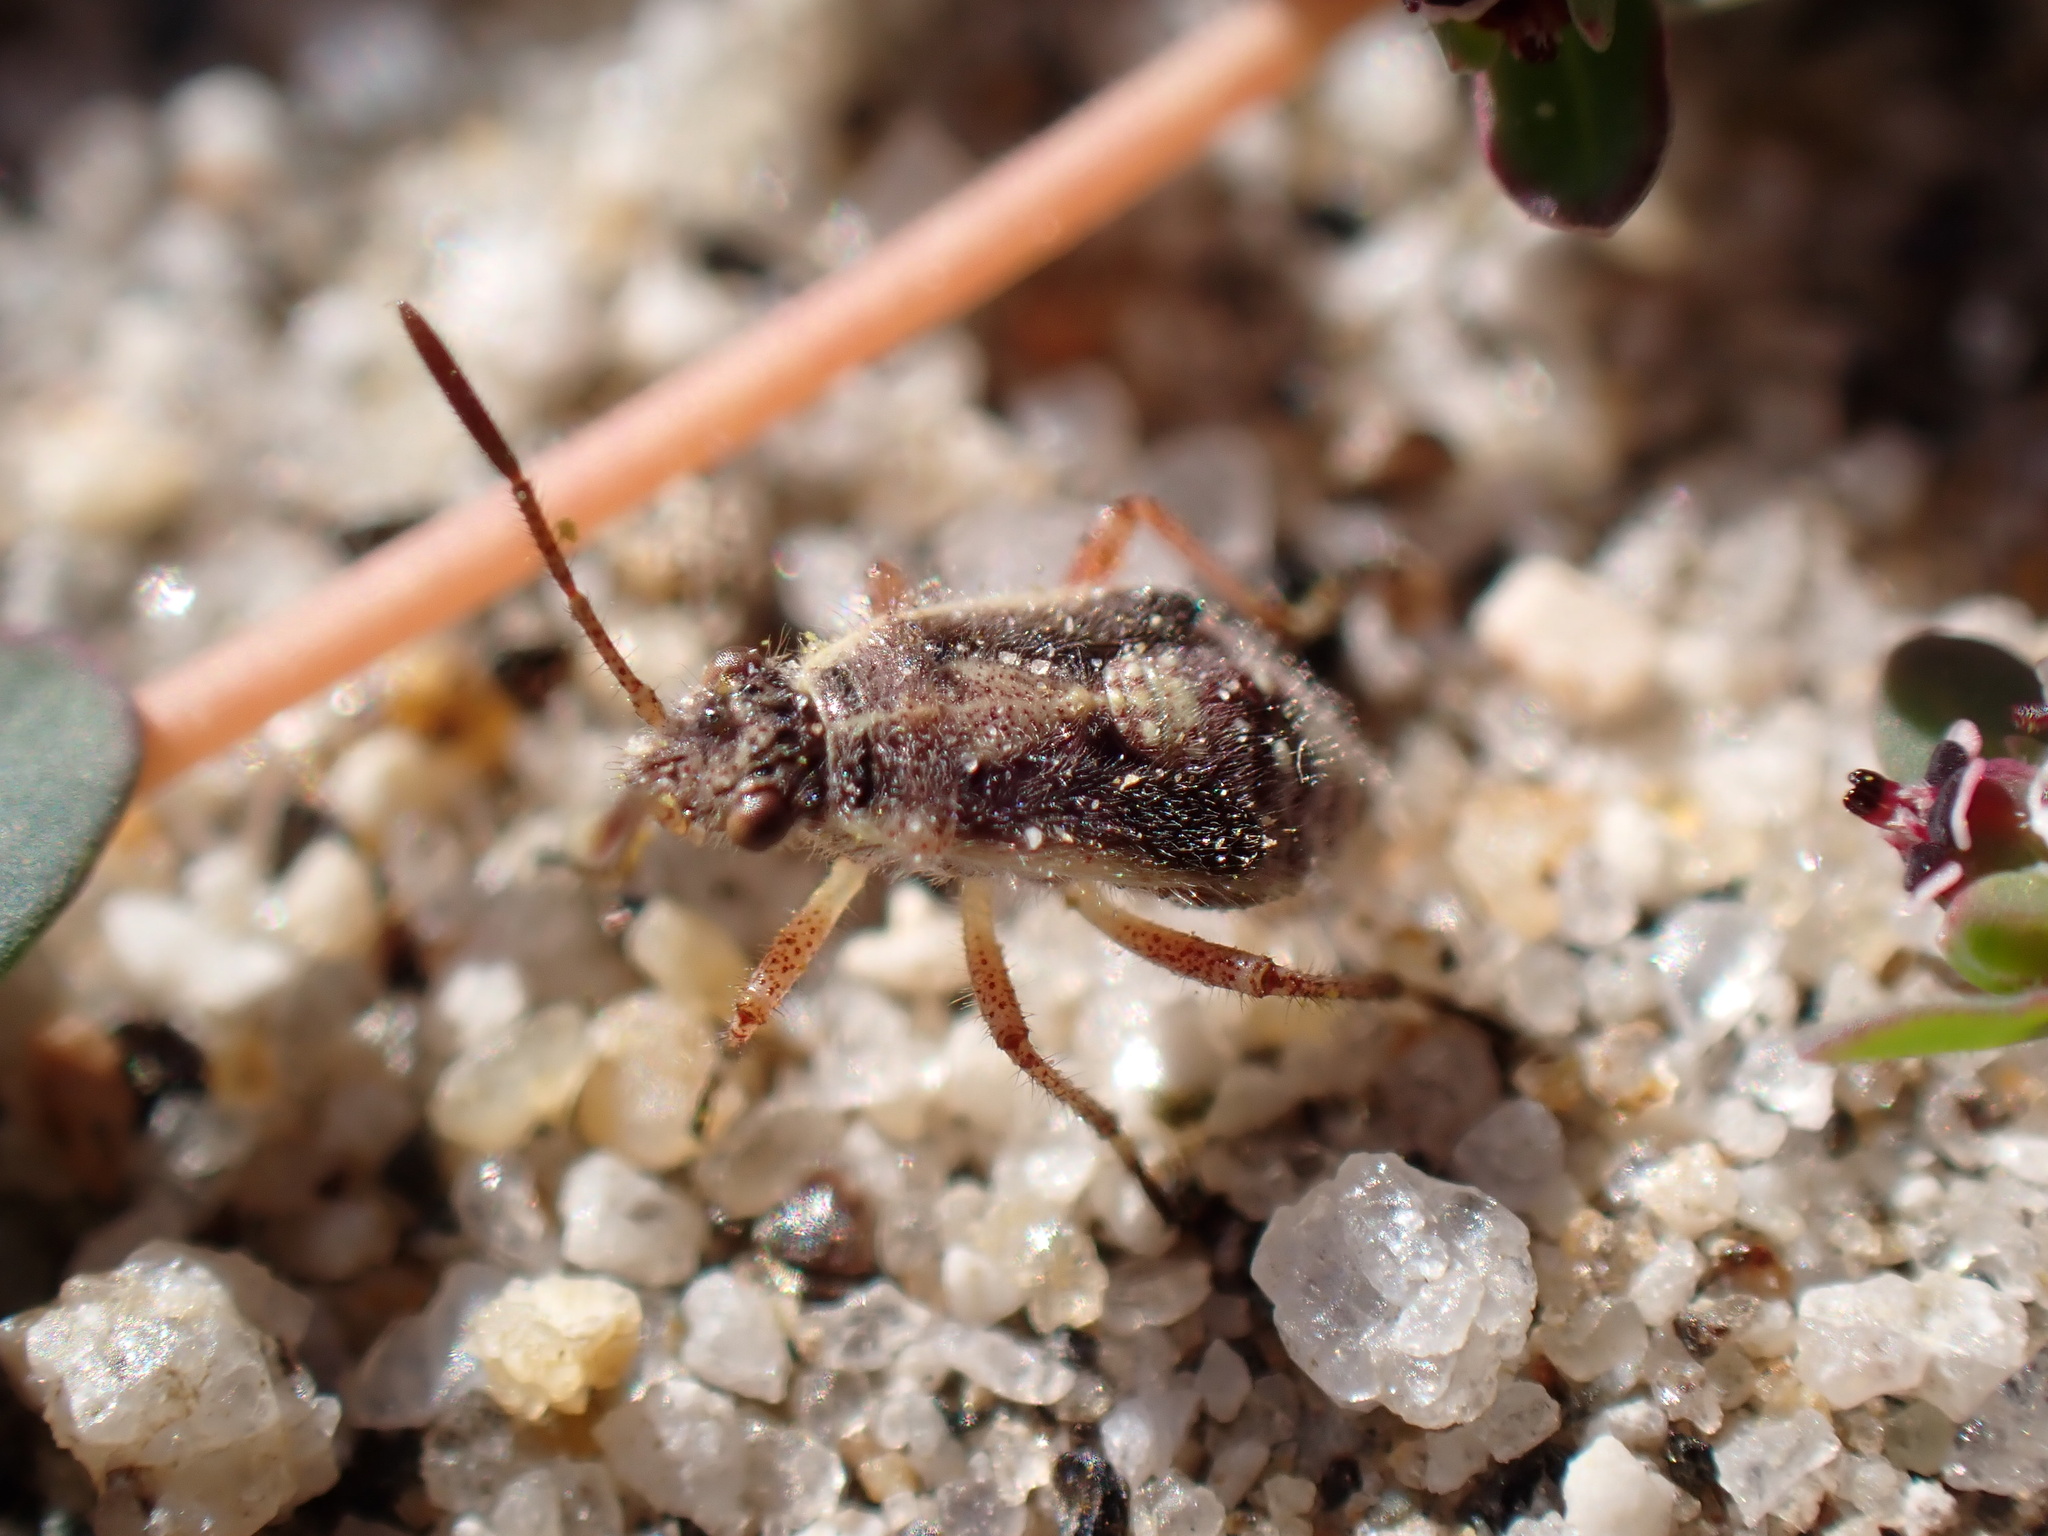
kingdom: Animalia
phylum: Arthropoda
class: Insecta
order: Hemiptera
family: Rhopalidae
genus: Liorhyssus
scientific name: Liorhyssus hyalinus
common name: Scentless plant bug
